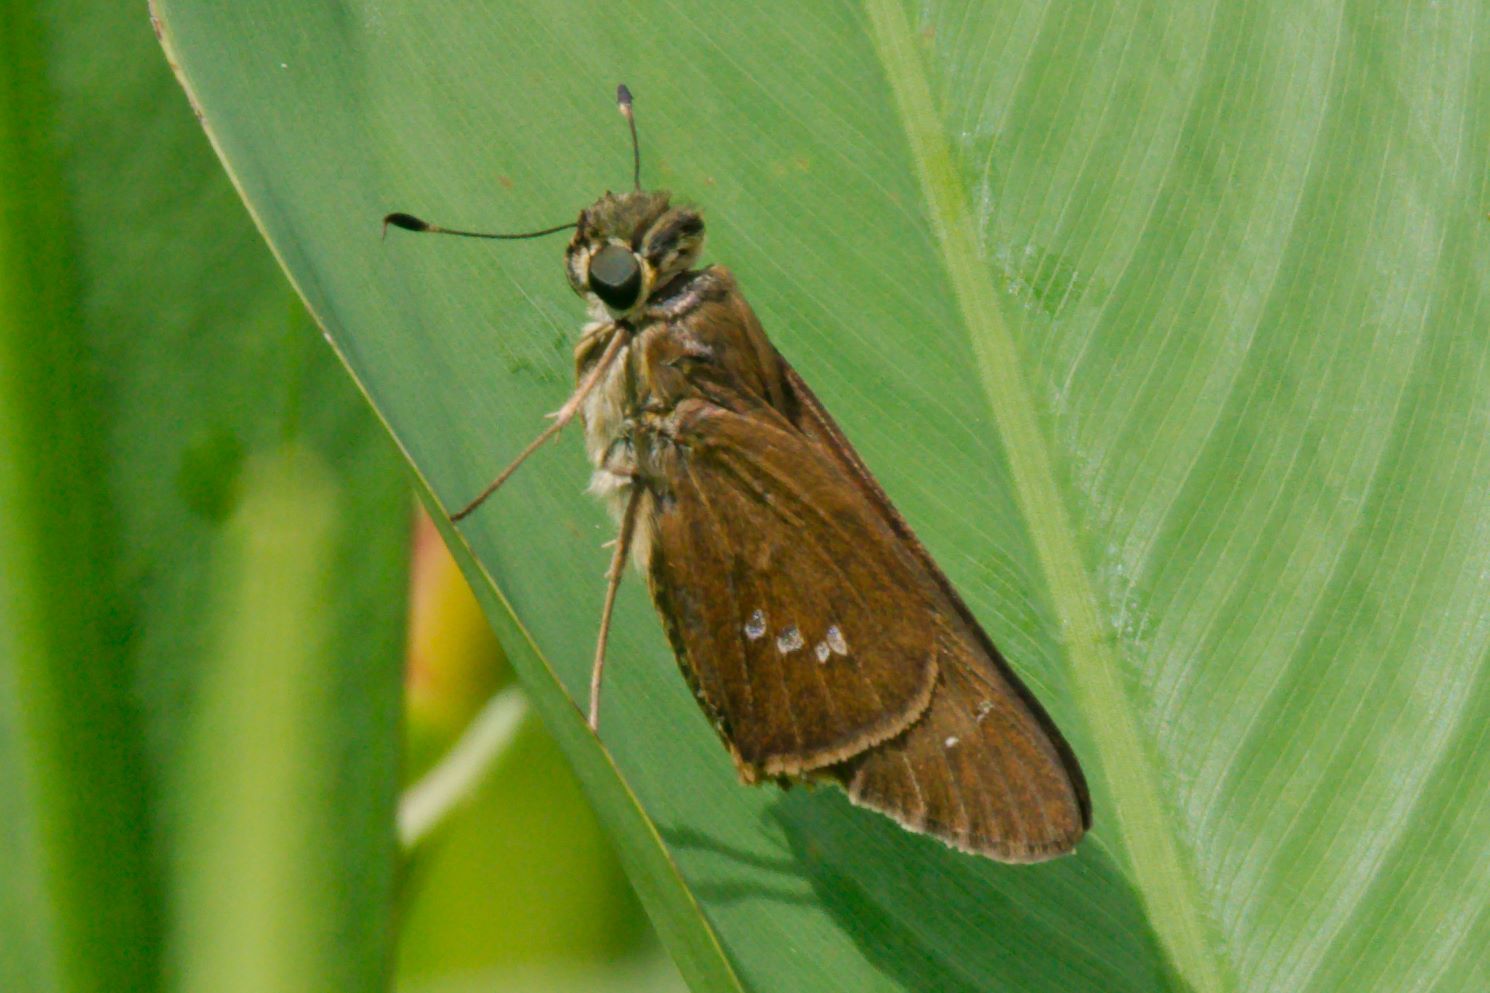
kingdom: Animalia
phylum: Arthropoda
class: Insecta
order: Lepidoptera
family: Hesperiidae
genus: Calpodes
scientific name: Calpodes ethlius
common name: Brazilian skipper
